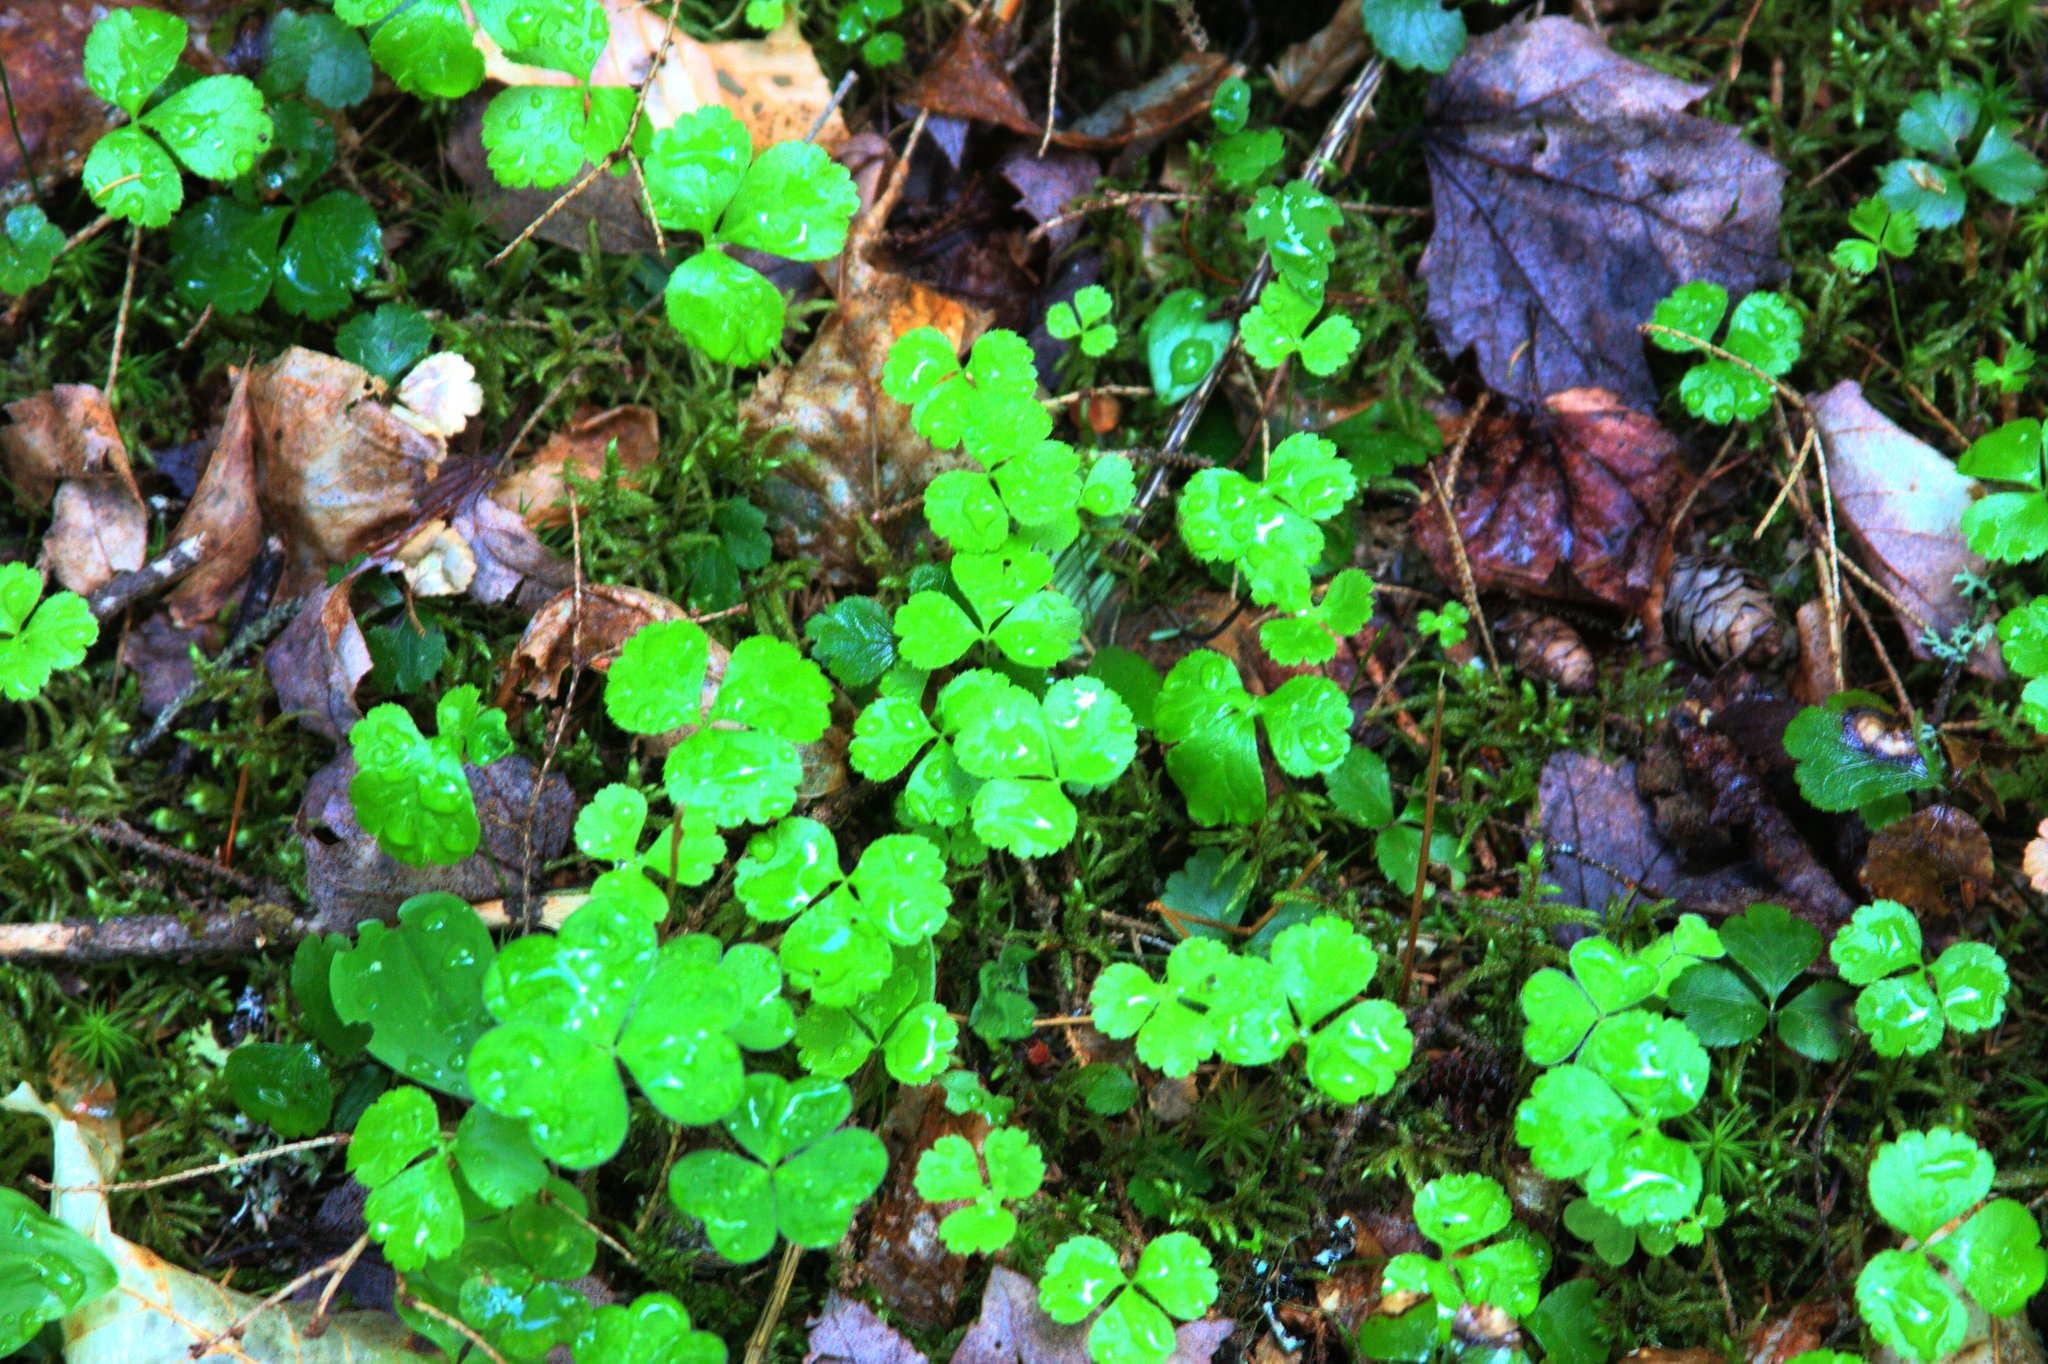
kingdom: Plantae
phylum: Tracheophyta
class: Magnoliopsida
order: Ranunculales
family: Ranunculaceae
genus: Coptis
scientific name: Coptis trifolia
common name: Canker-root
